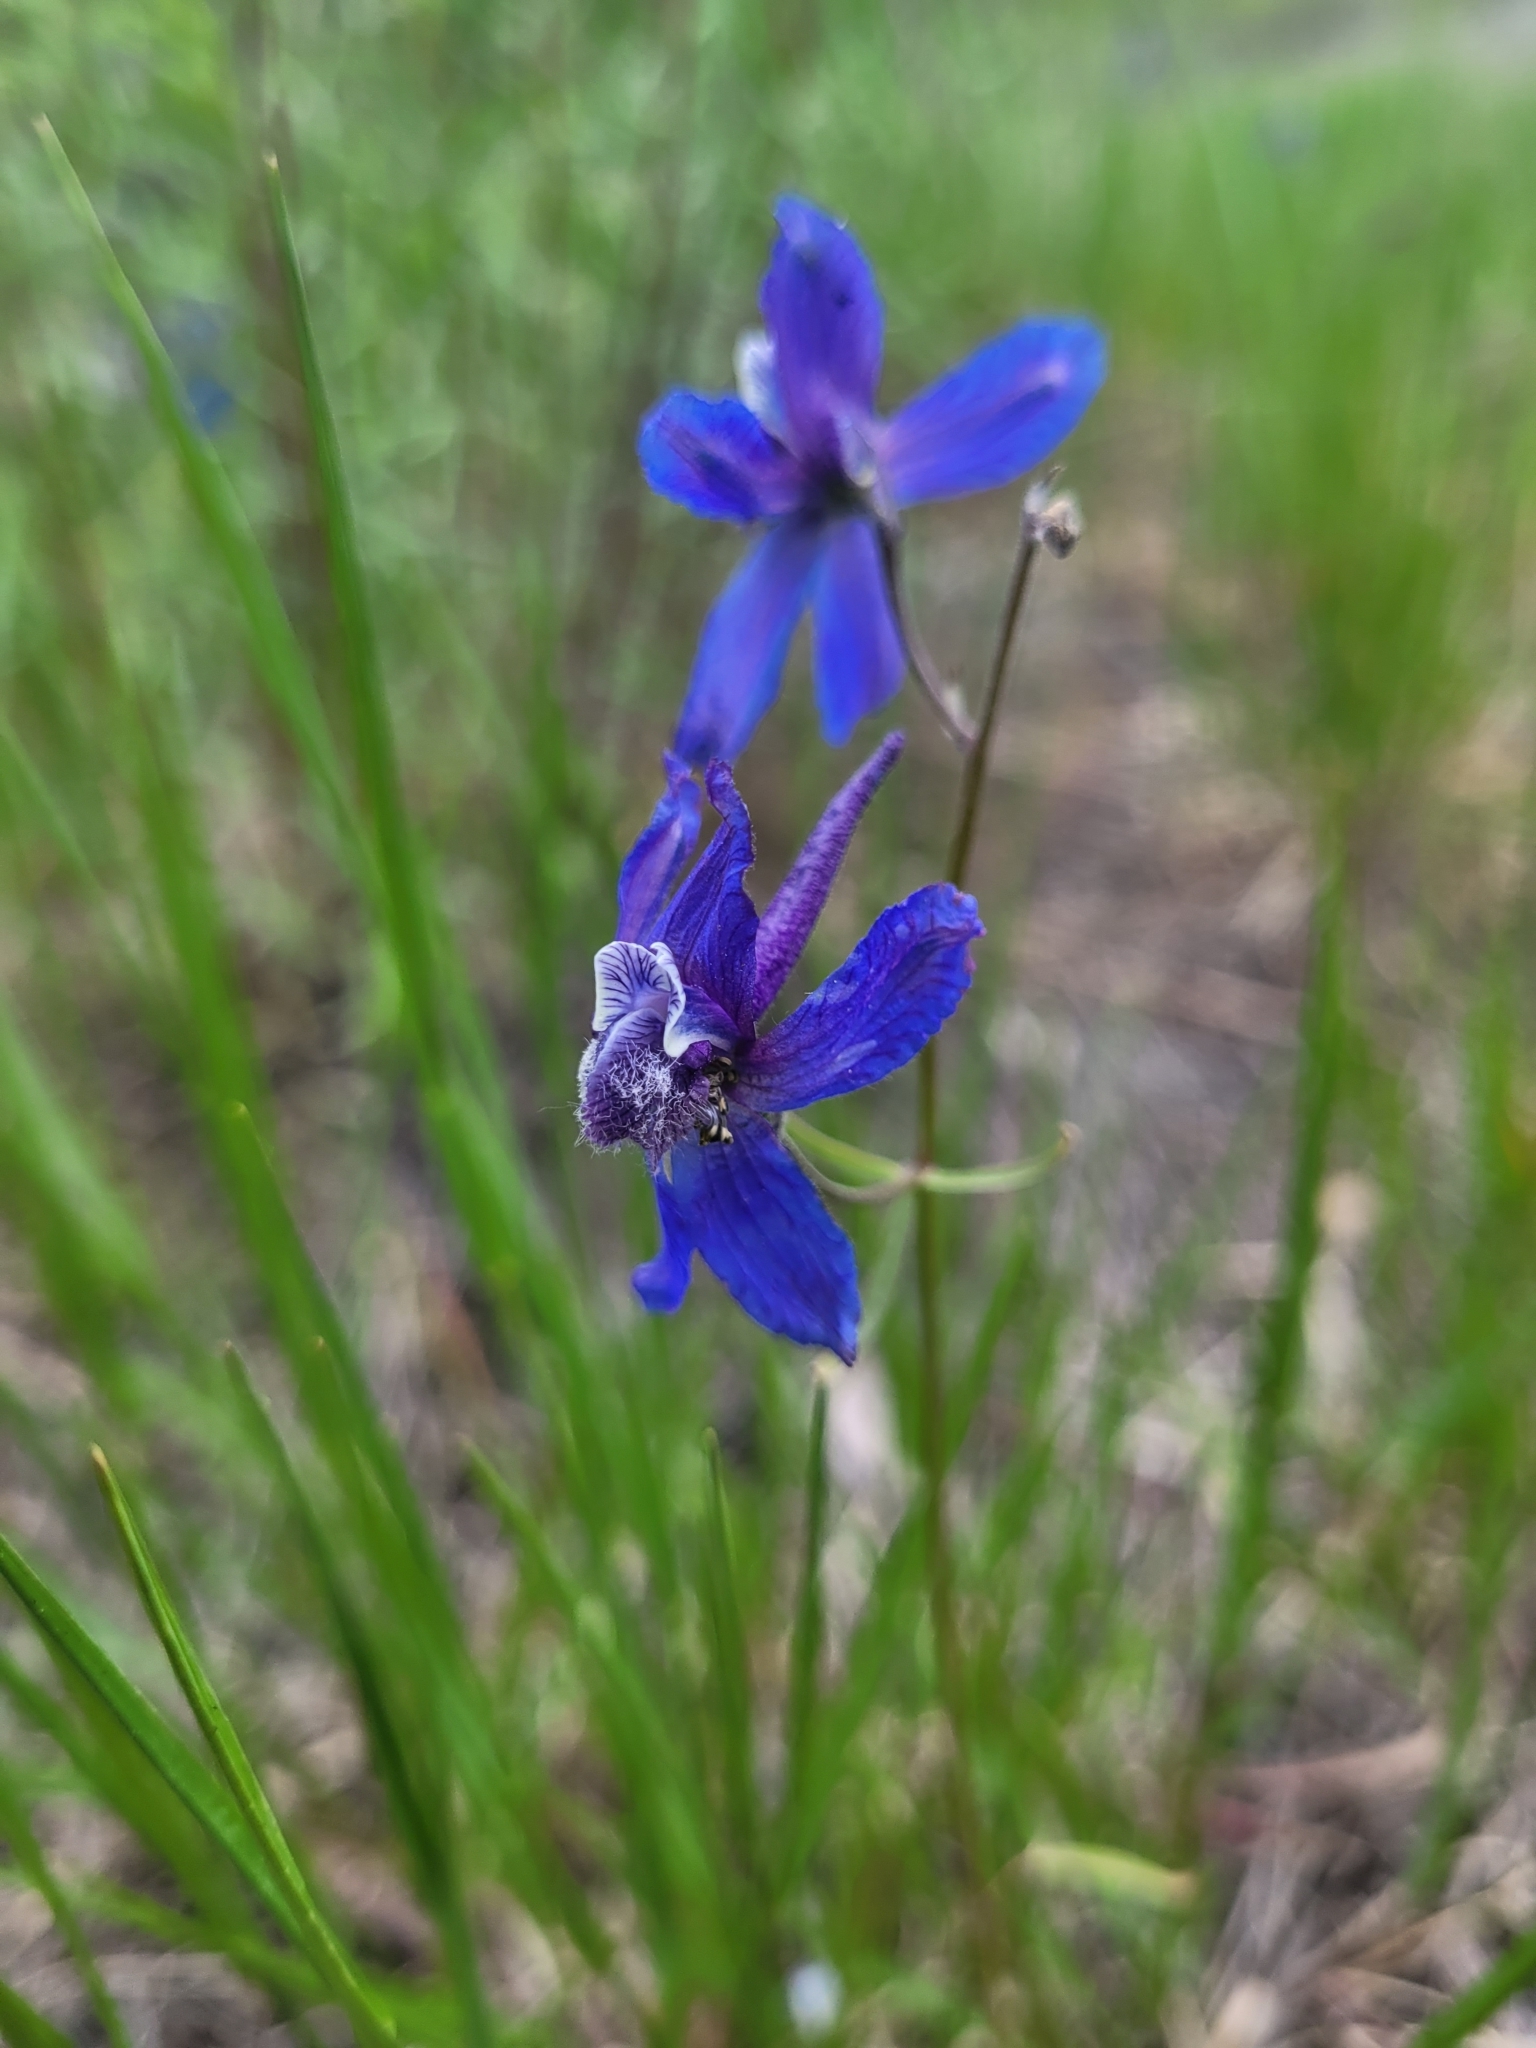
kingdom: Plantae
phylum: Tracheophyta
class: Magnoliopsida
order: Ranunculales
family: Ranunculaceae
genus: Delphinium
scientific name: Delphinium nuttallianum
